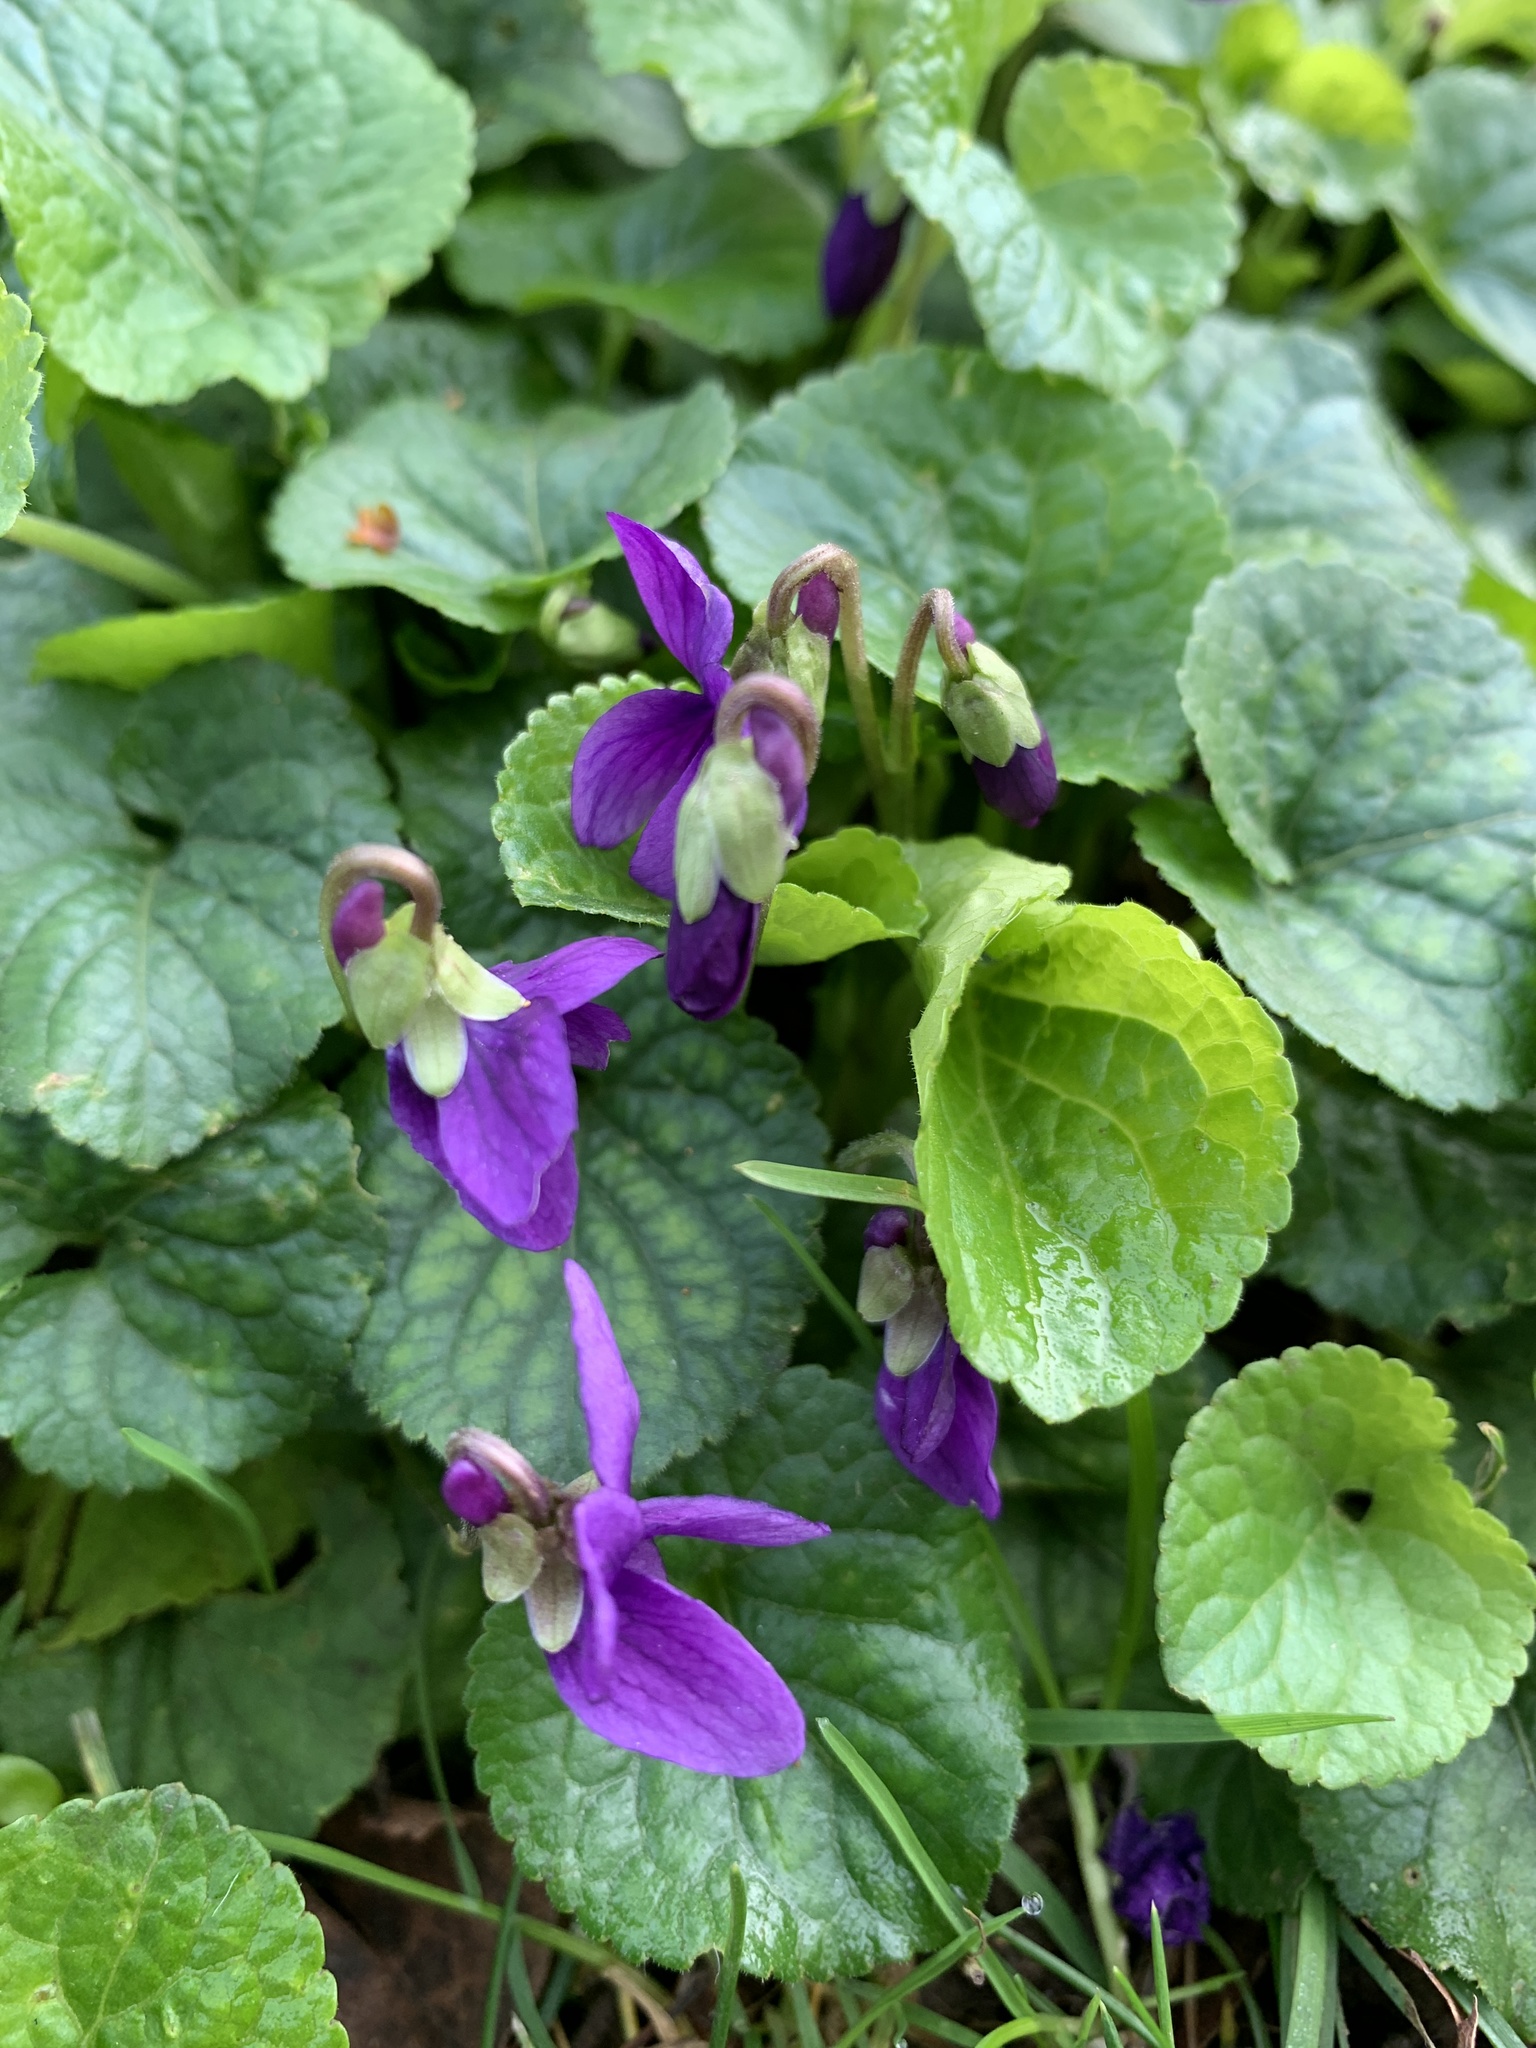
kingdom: Plantae
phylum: Tracheophyta
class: Magnoliopsida
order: Malpighiales
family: Violaceae
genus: Viola
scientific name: Viola odorata
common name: Sweet violet
